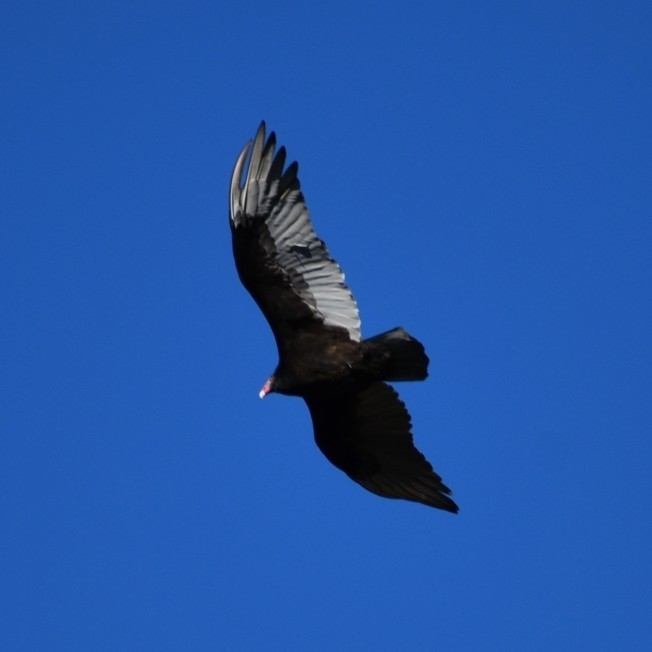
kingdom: Animalia
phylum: Chordata
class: Aves
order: Accipitriformes
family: Cathartidae
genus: Cathartes
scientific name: Cathartes aura
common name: Turkey vulture
